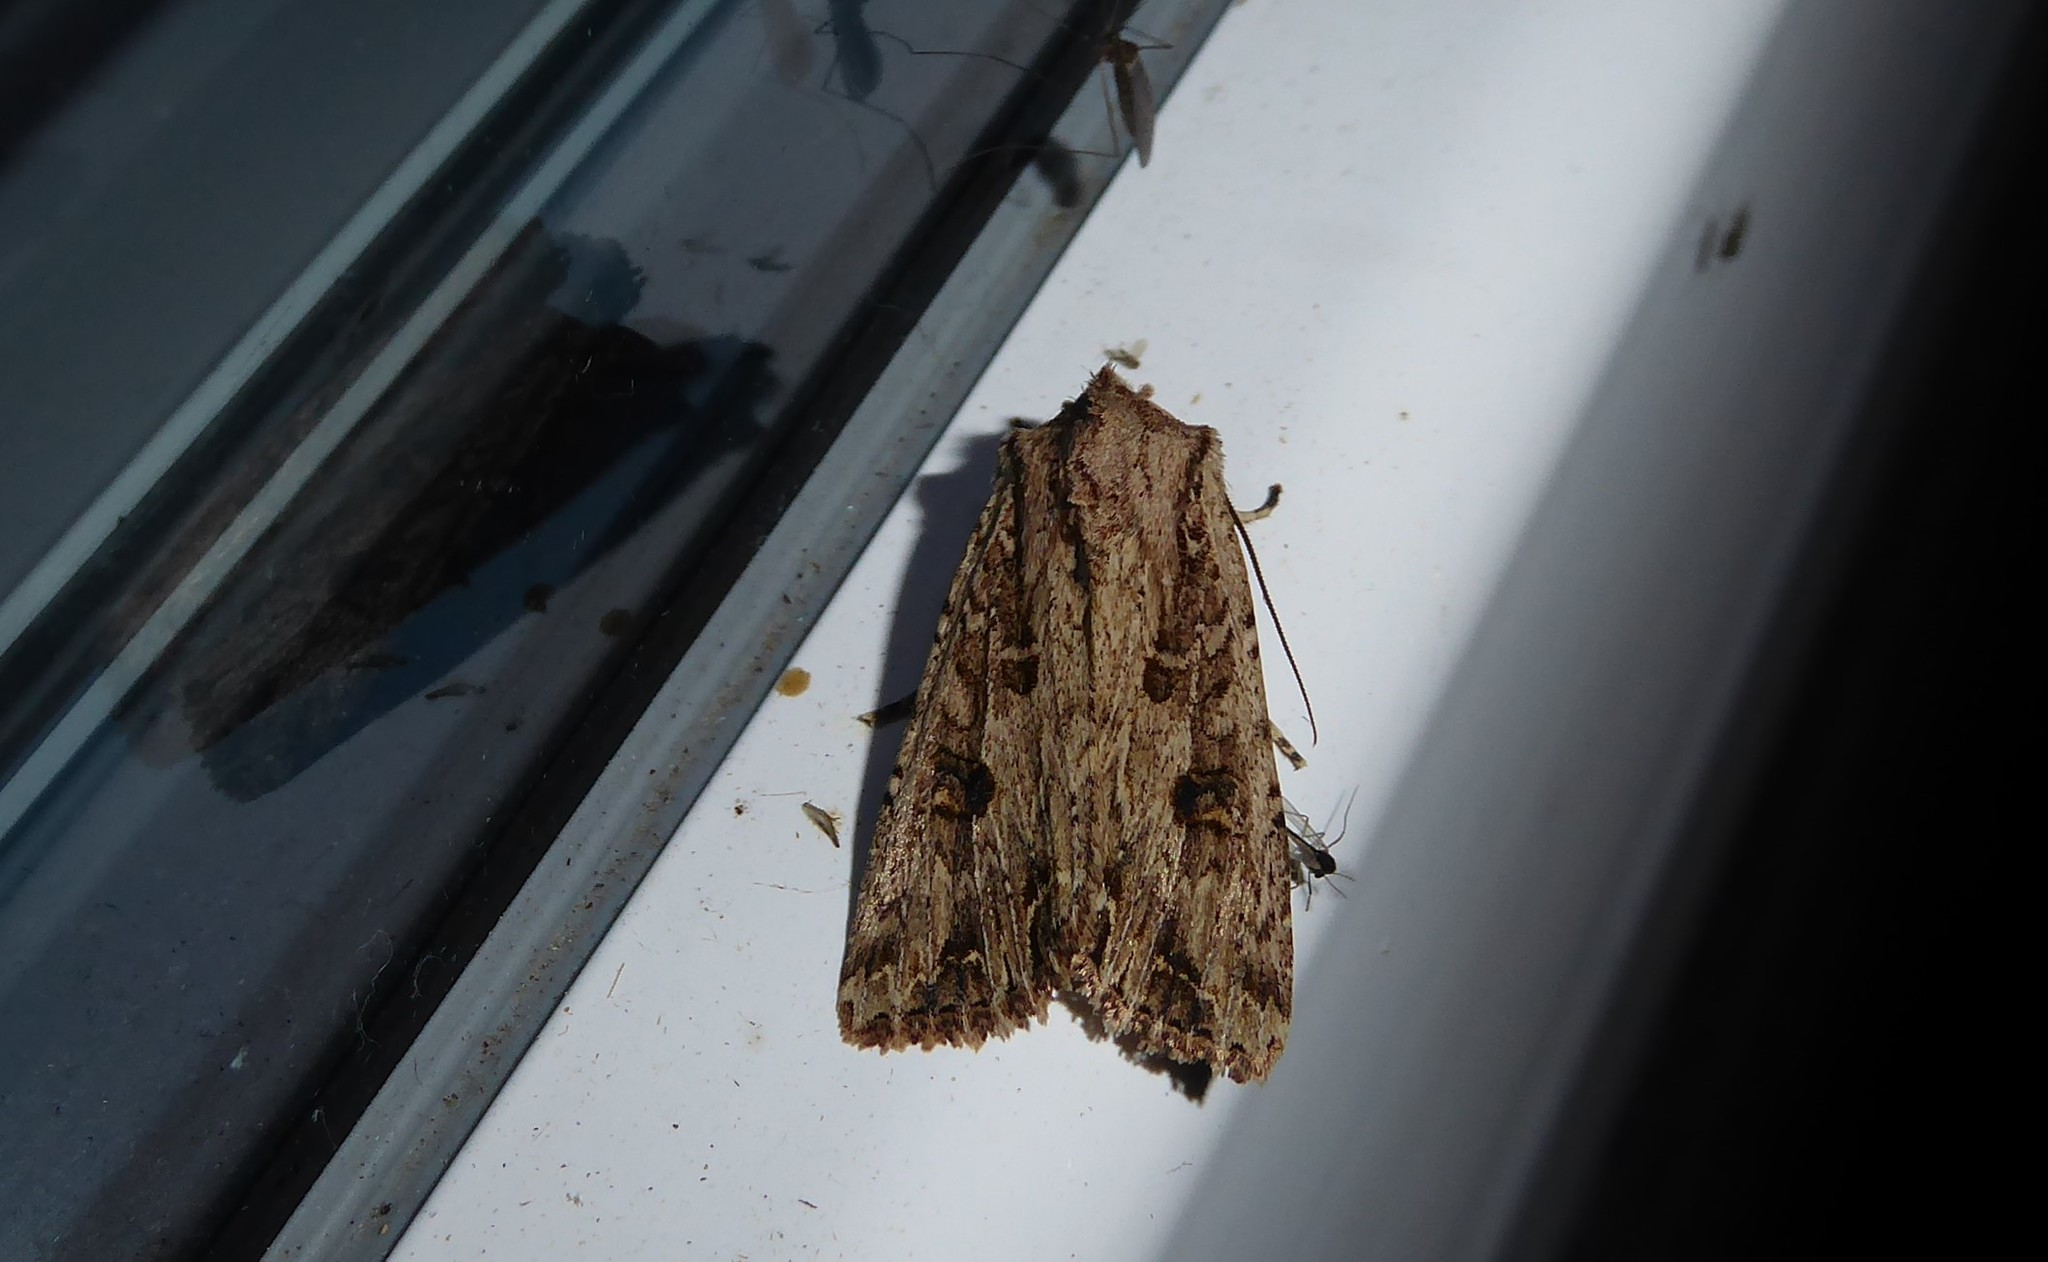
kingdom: Animalia
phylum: Arthropoda
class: Insecta
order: Lepidoptera
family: Noctuidae
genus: Ichneutica
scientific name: Ichneutica lignana
